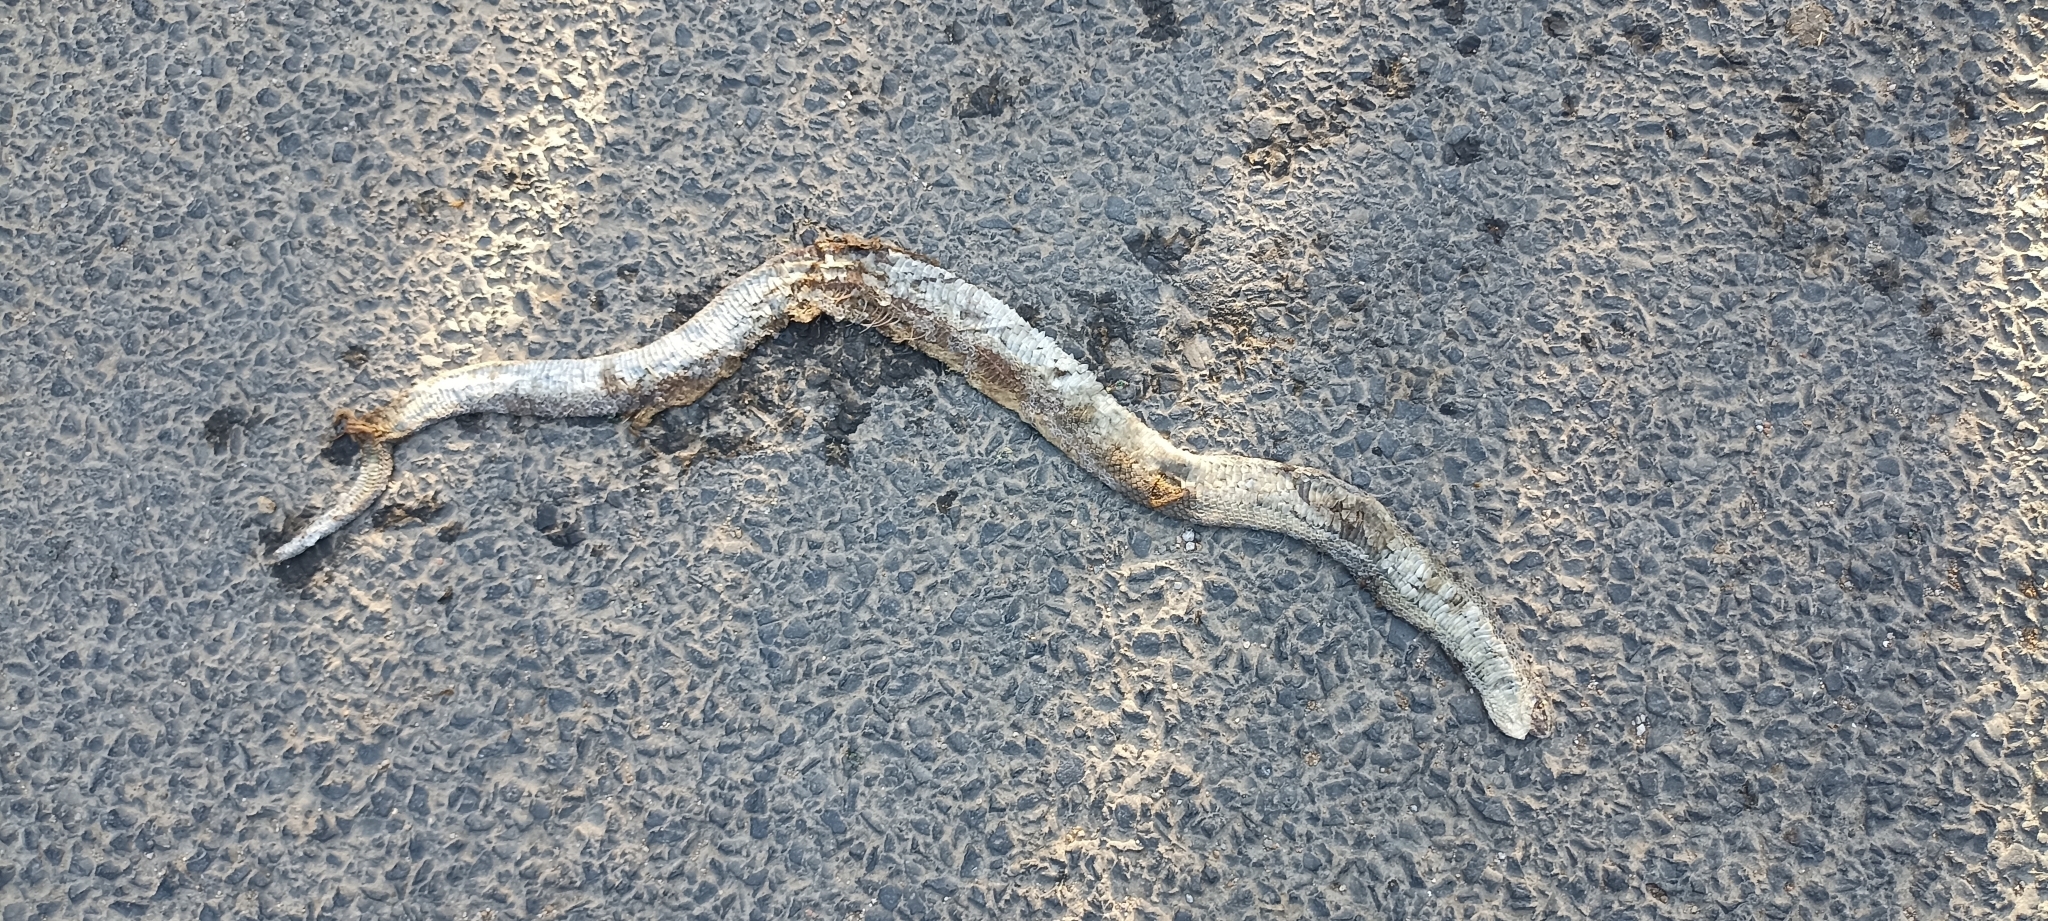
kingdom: Animalia
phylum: Chordata
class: Squamata
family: Psammophiidae
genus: Malpolon
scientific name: Malpolon monspessulanus
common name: Montpellier snake
